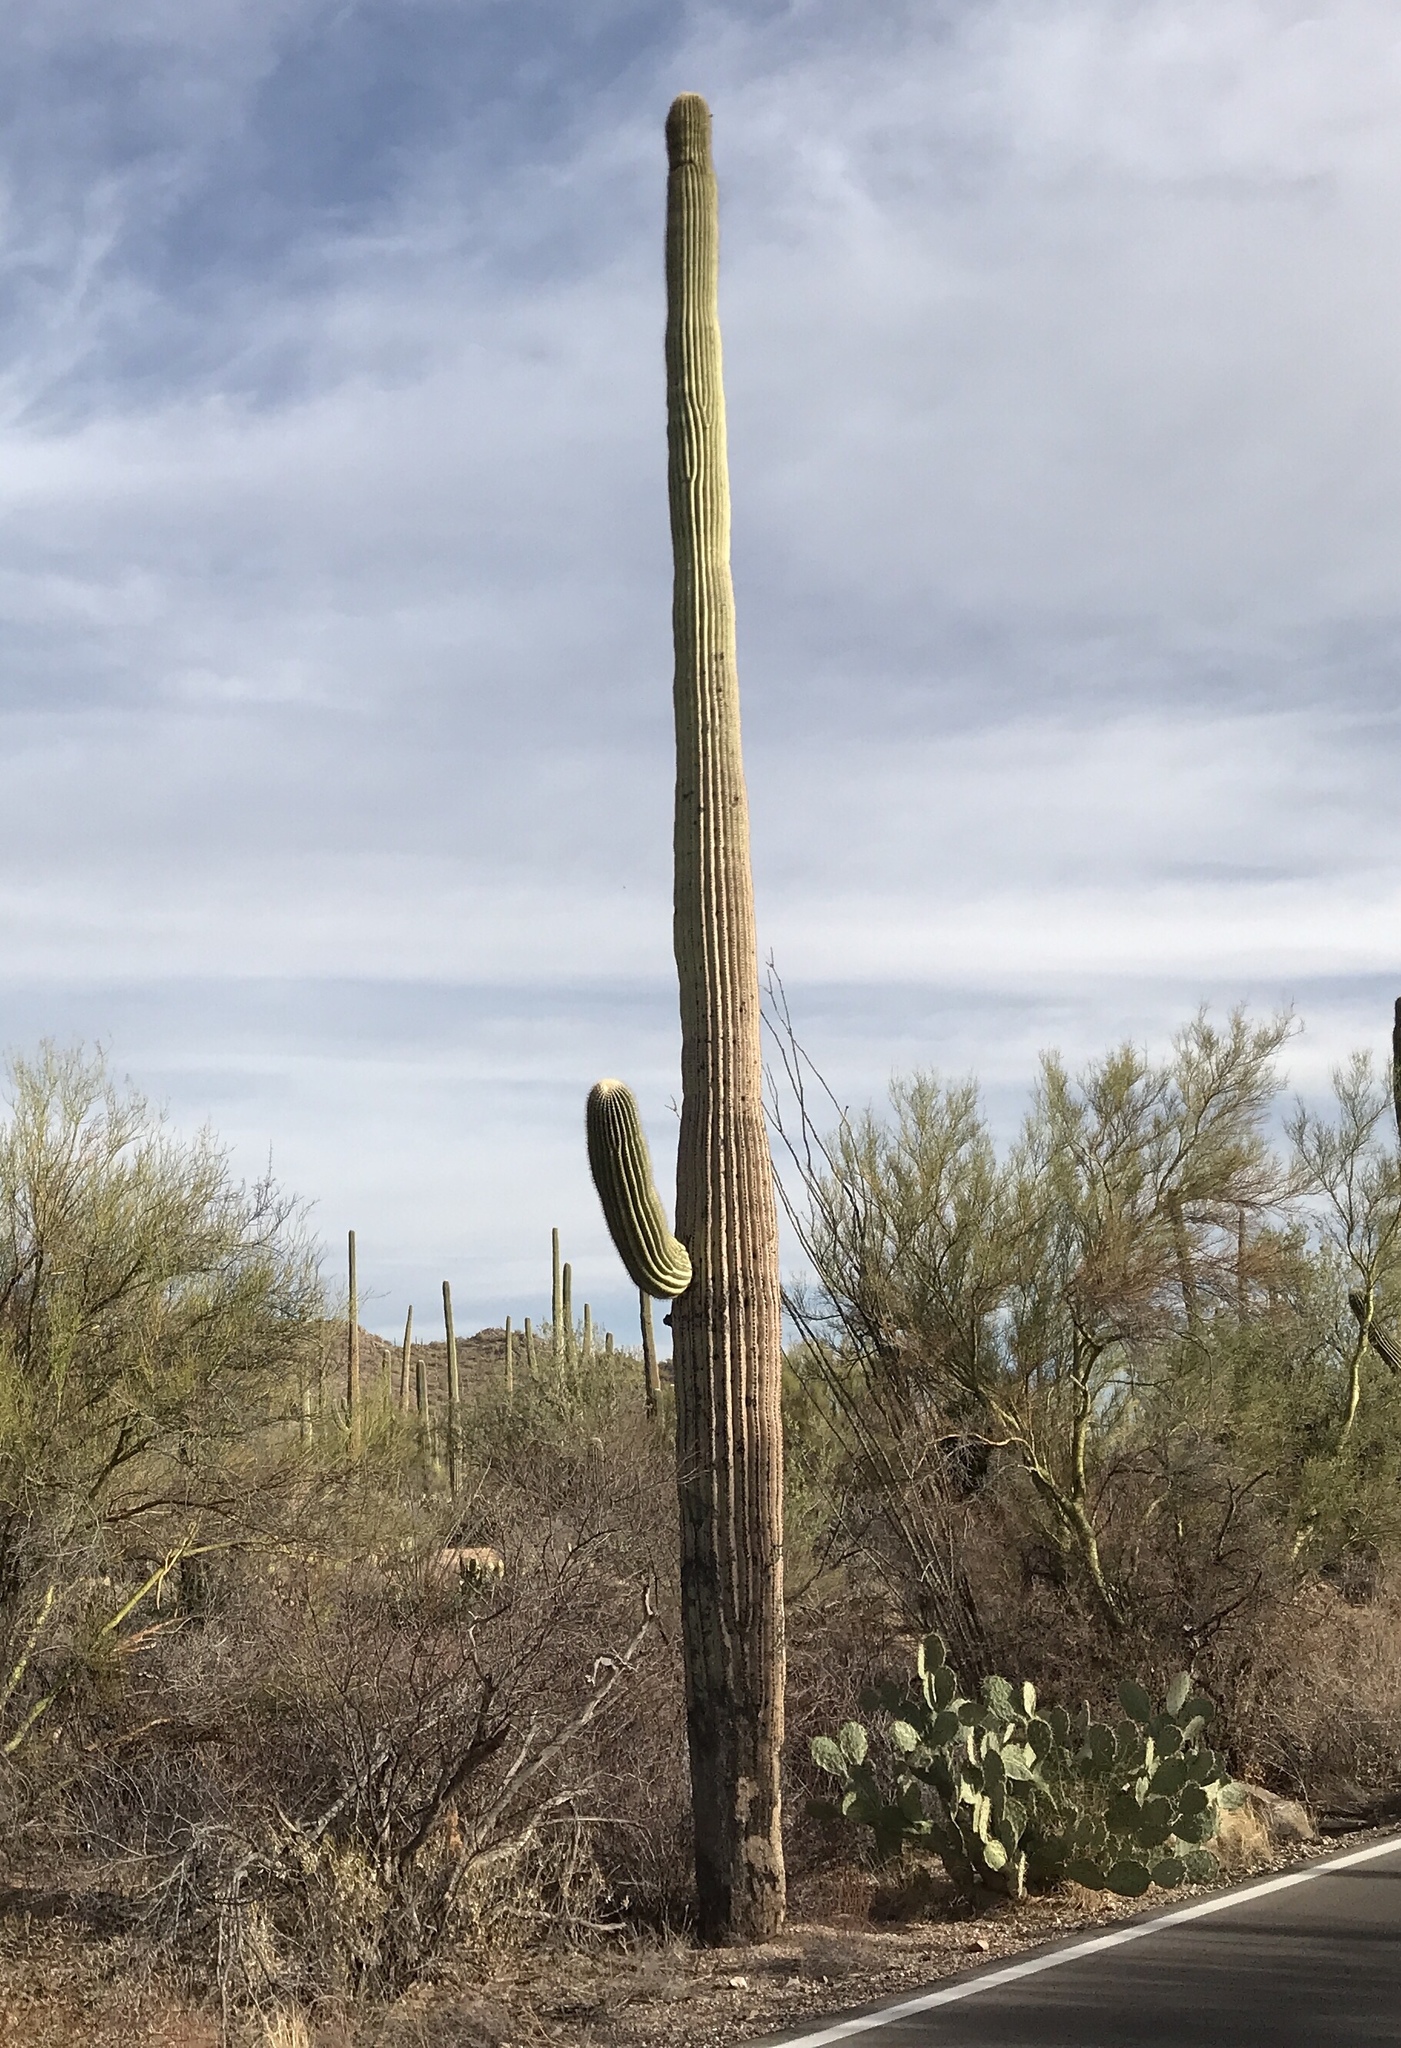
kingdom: Plantae
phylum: Tracheophyta
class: Magnoliopsida
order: Caryophyllales
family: Cactaceae
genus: Carnegiea
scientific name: Carnegiea gigantea
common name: Saguaro
